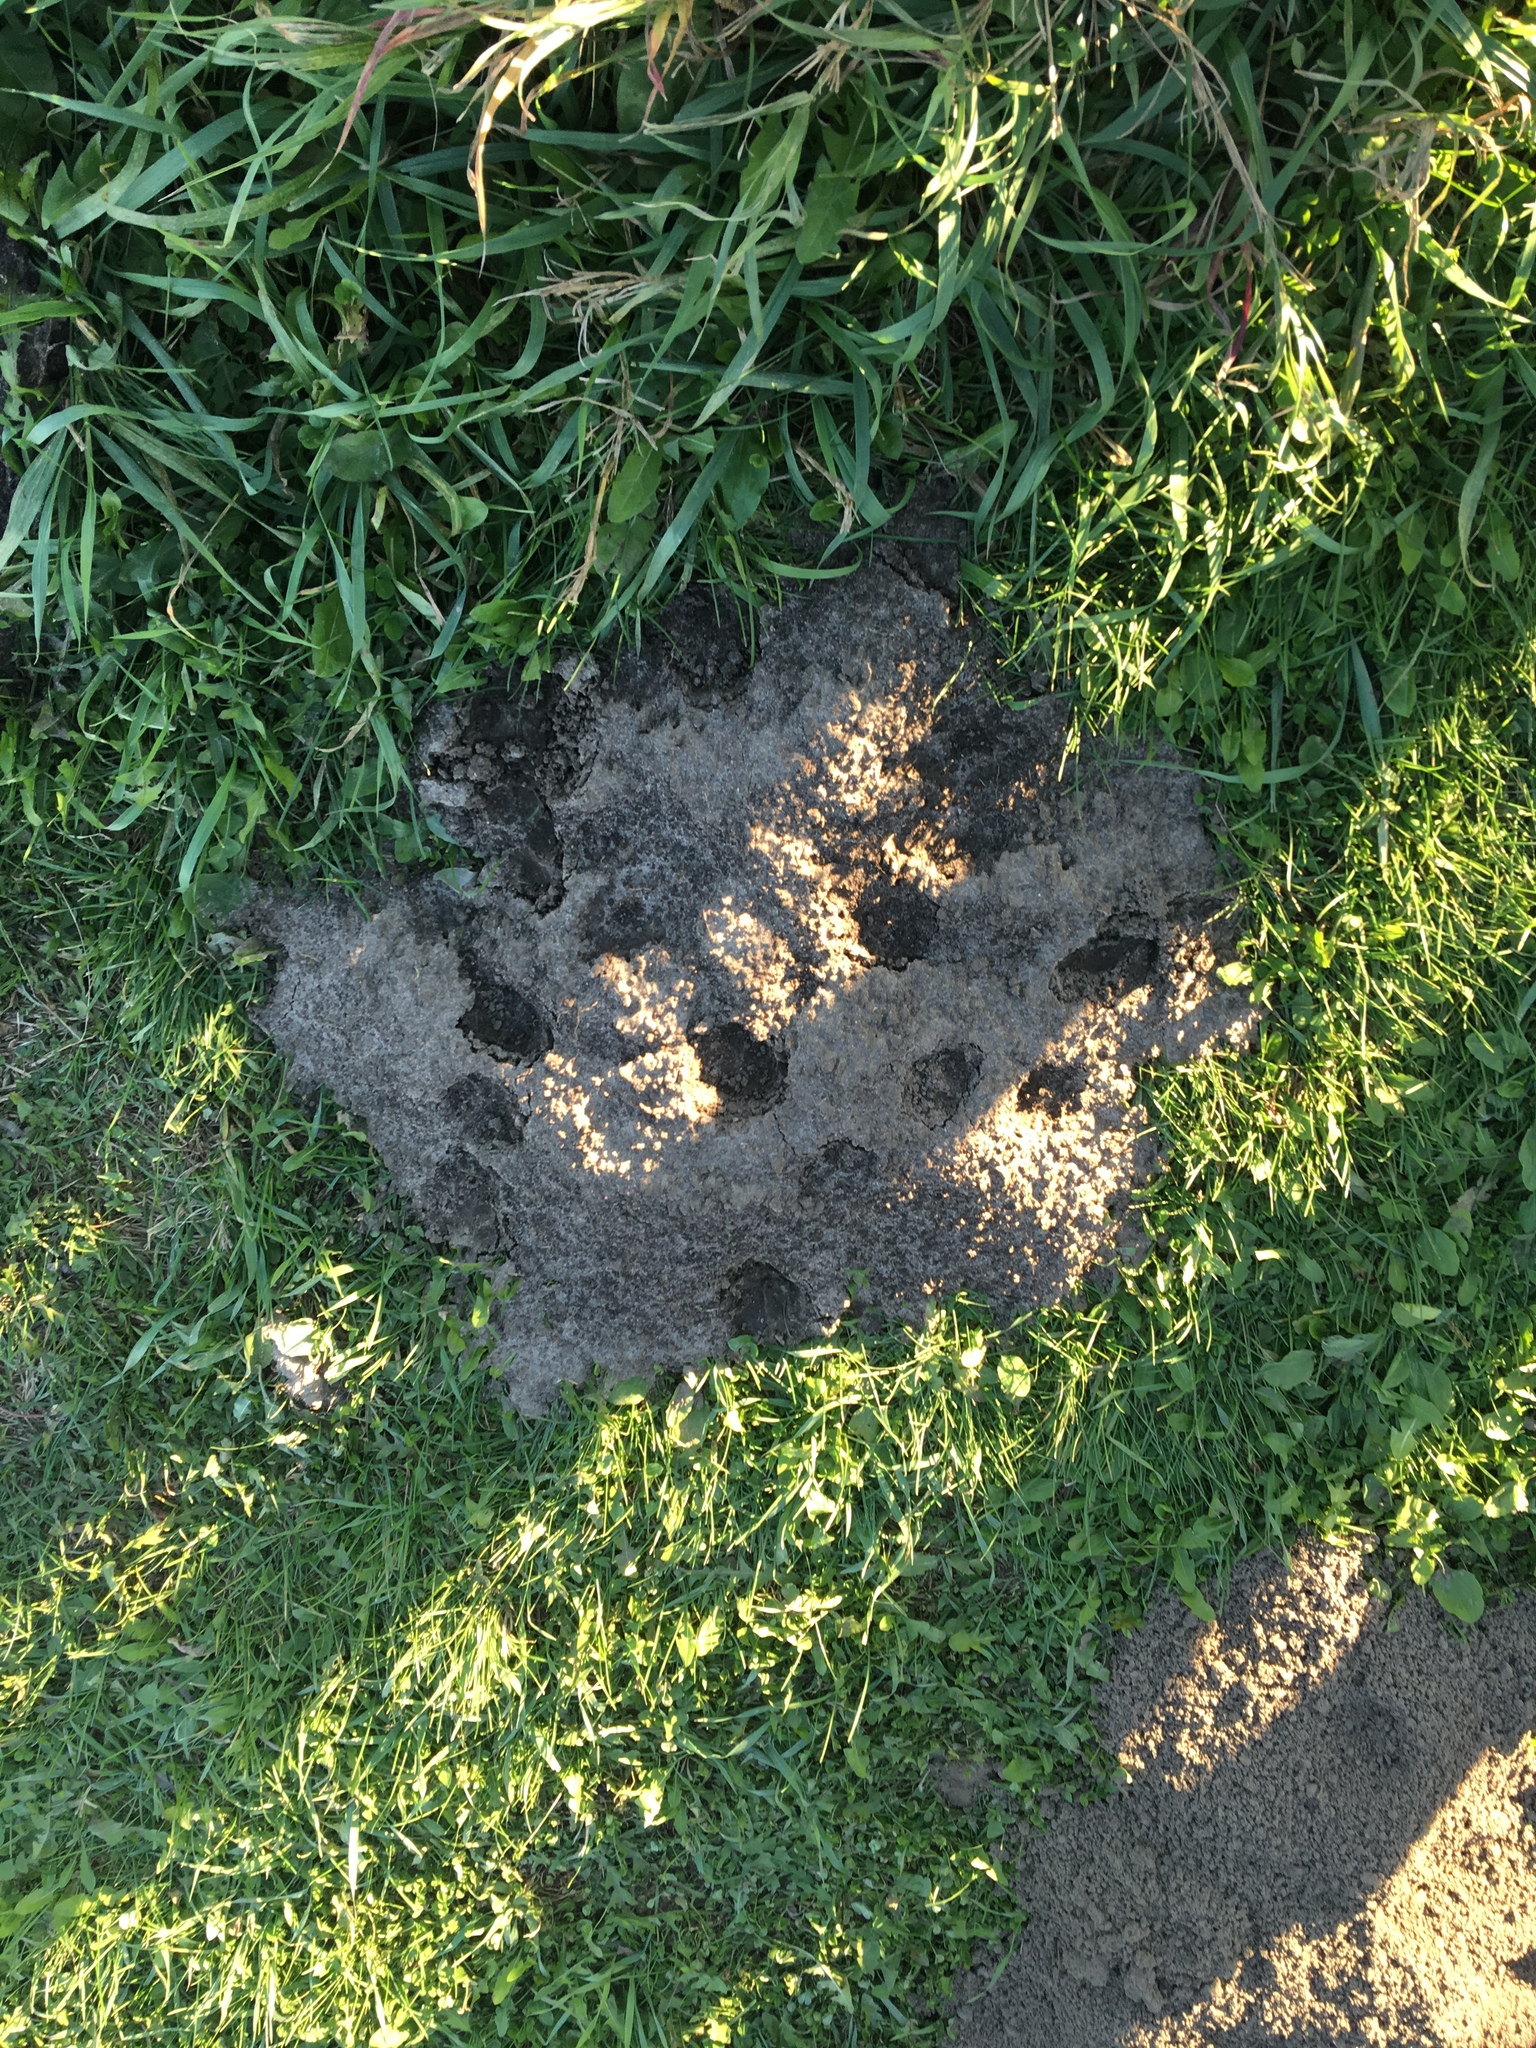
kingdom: Animalia
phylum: Chordata
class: Mammalia
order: Rodentia
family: Geomyidae
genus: Geomys
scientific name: Geomys bursarius
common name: Plains pocket gopher
